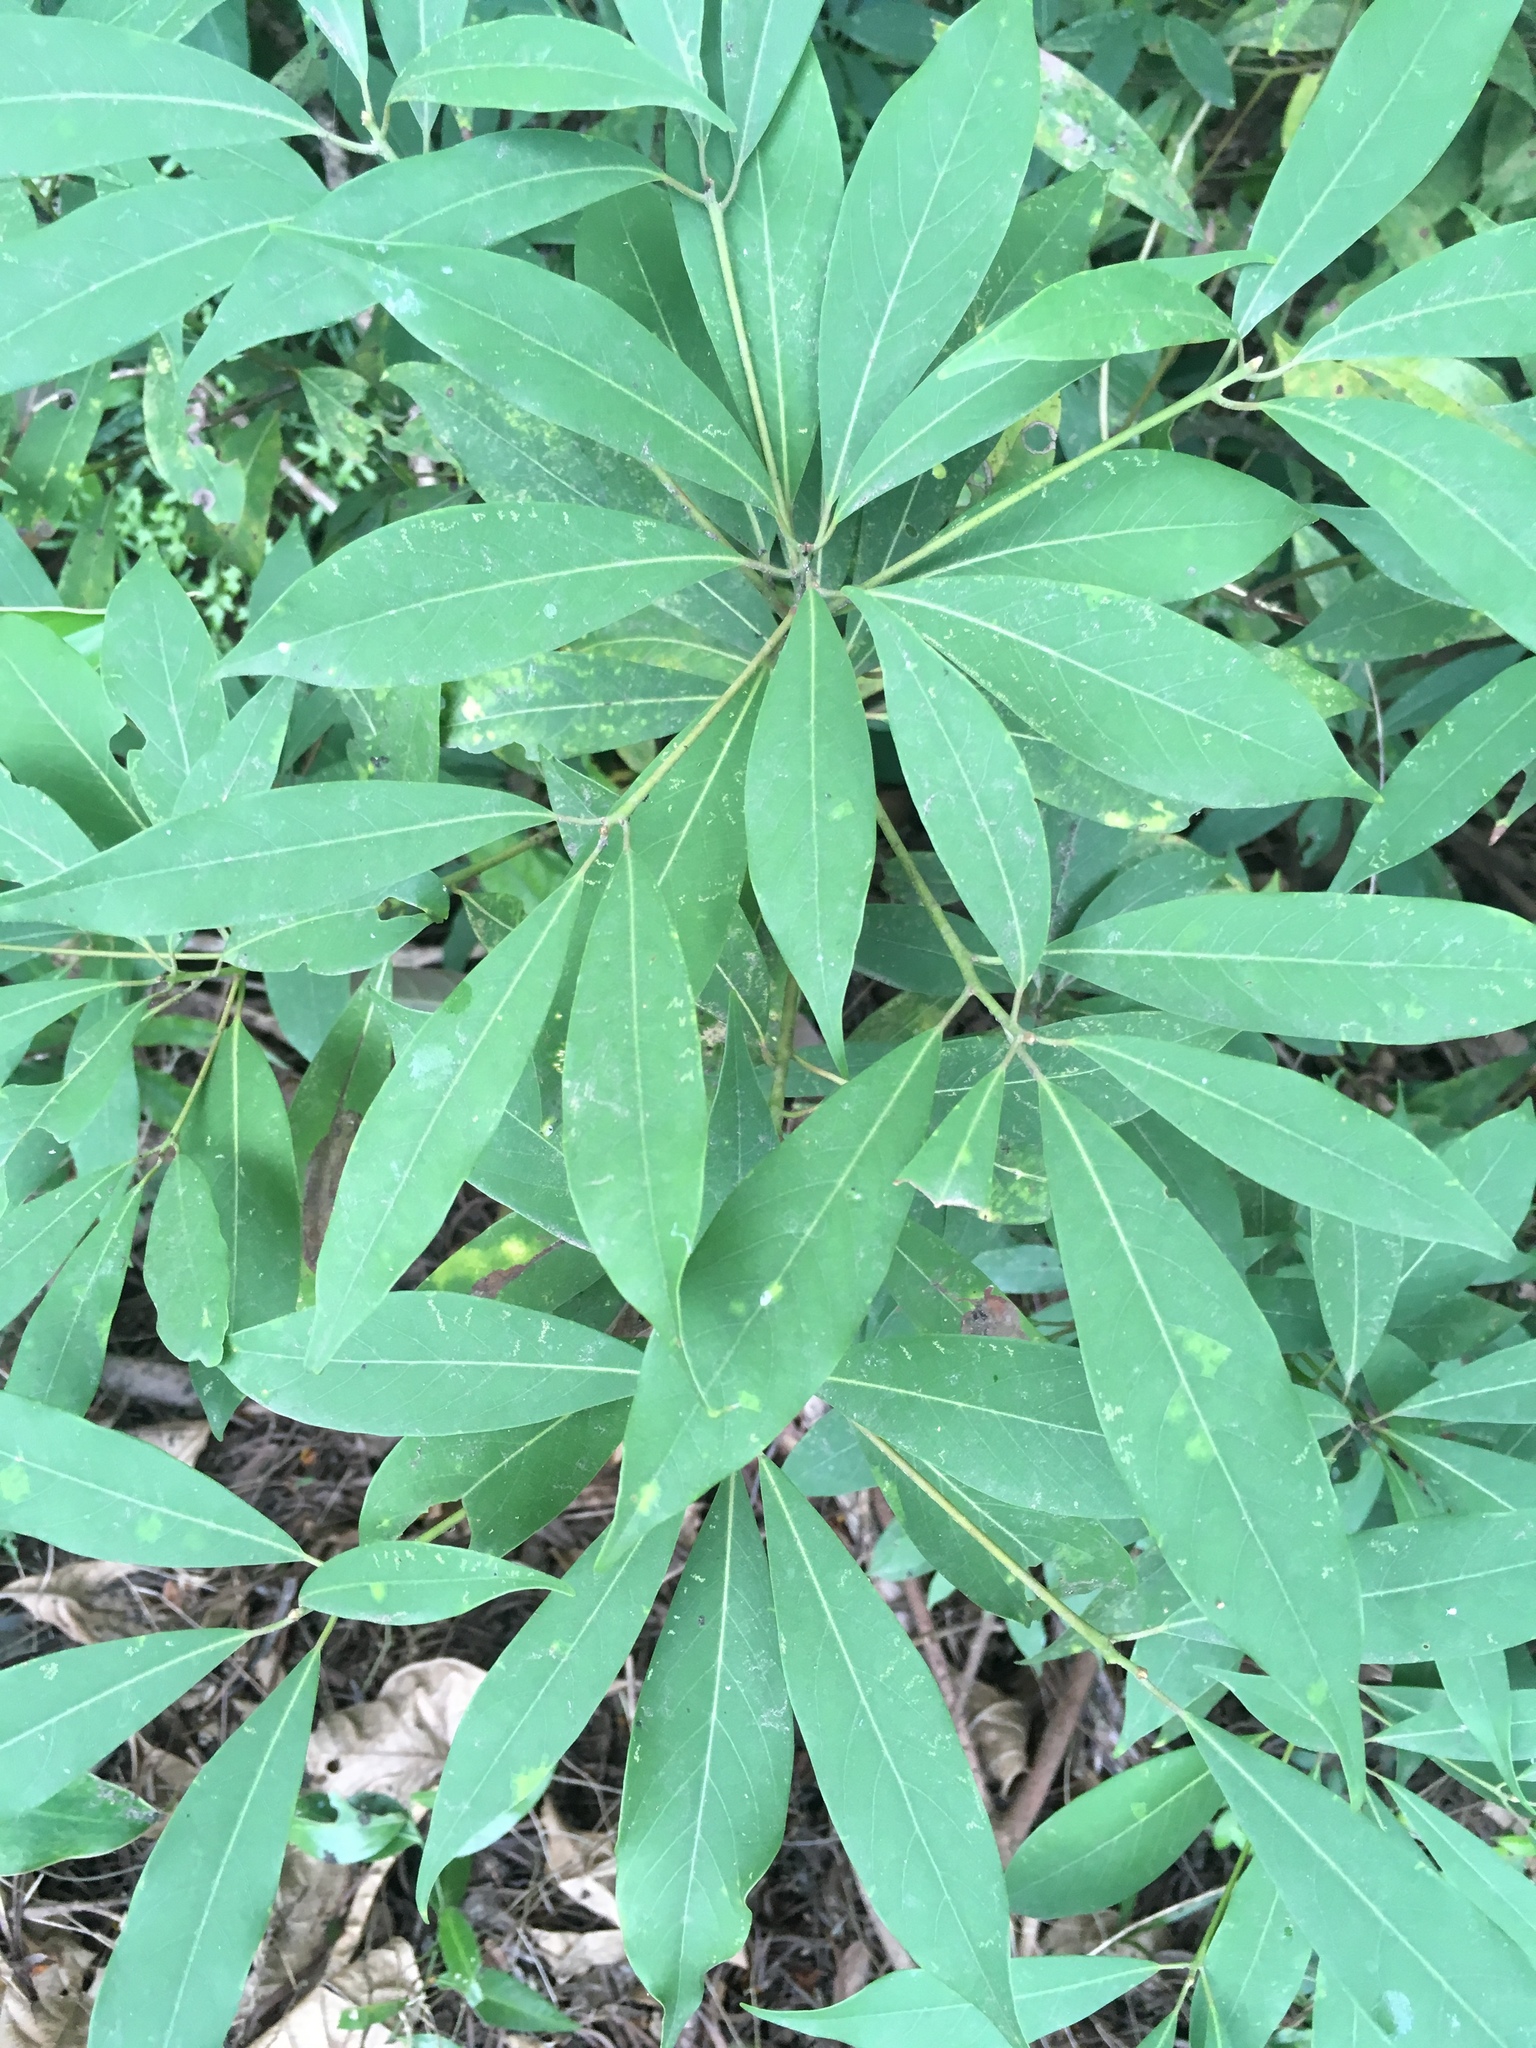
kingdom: Plantae
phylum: Tracheophyta
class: Magnoliopsida
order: Laurales
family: Lauraceae
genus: Machilus
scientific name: Machilus zuihoensis
